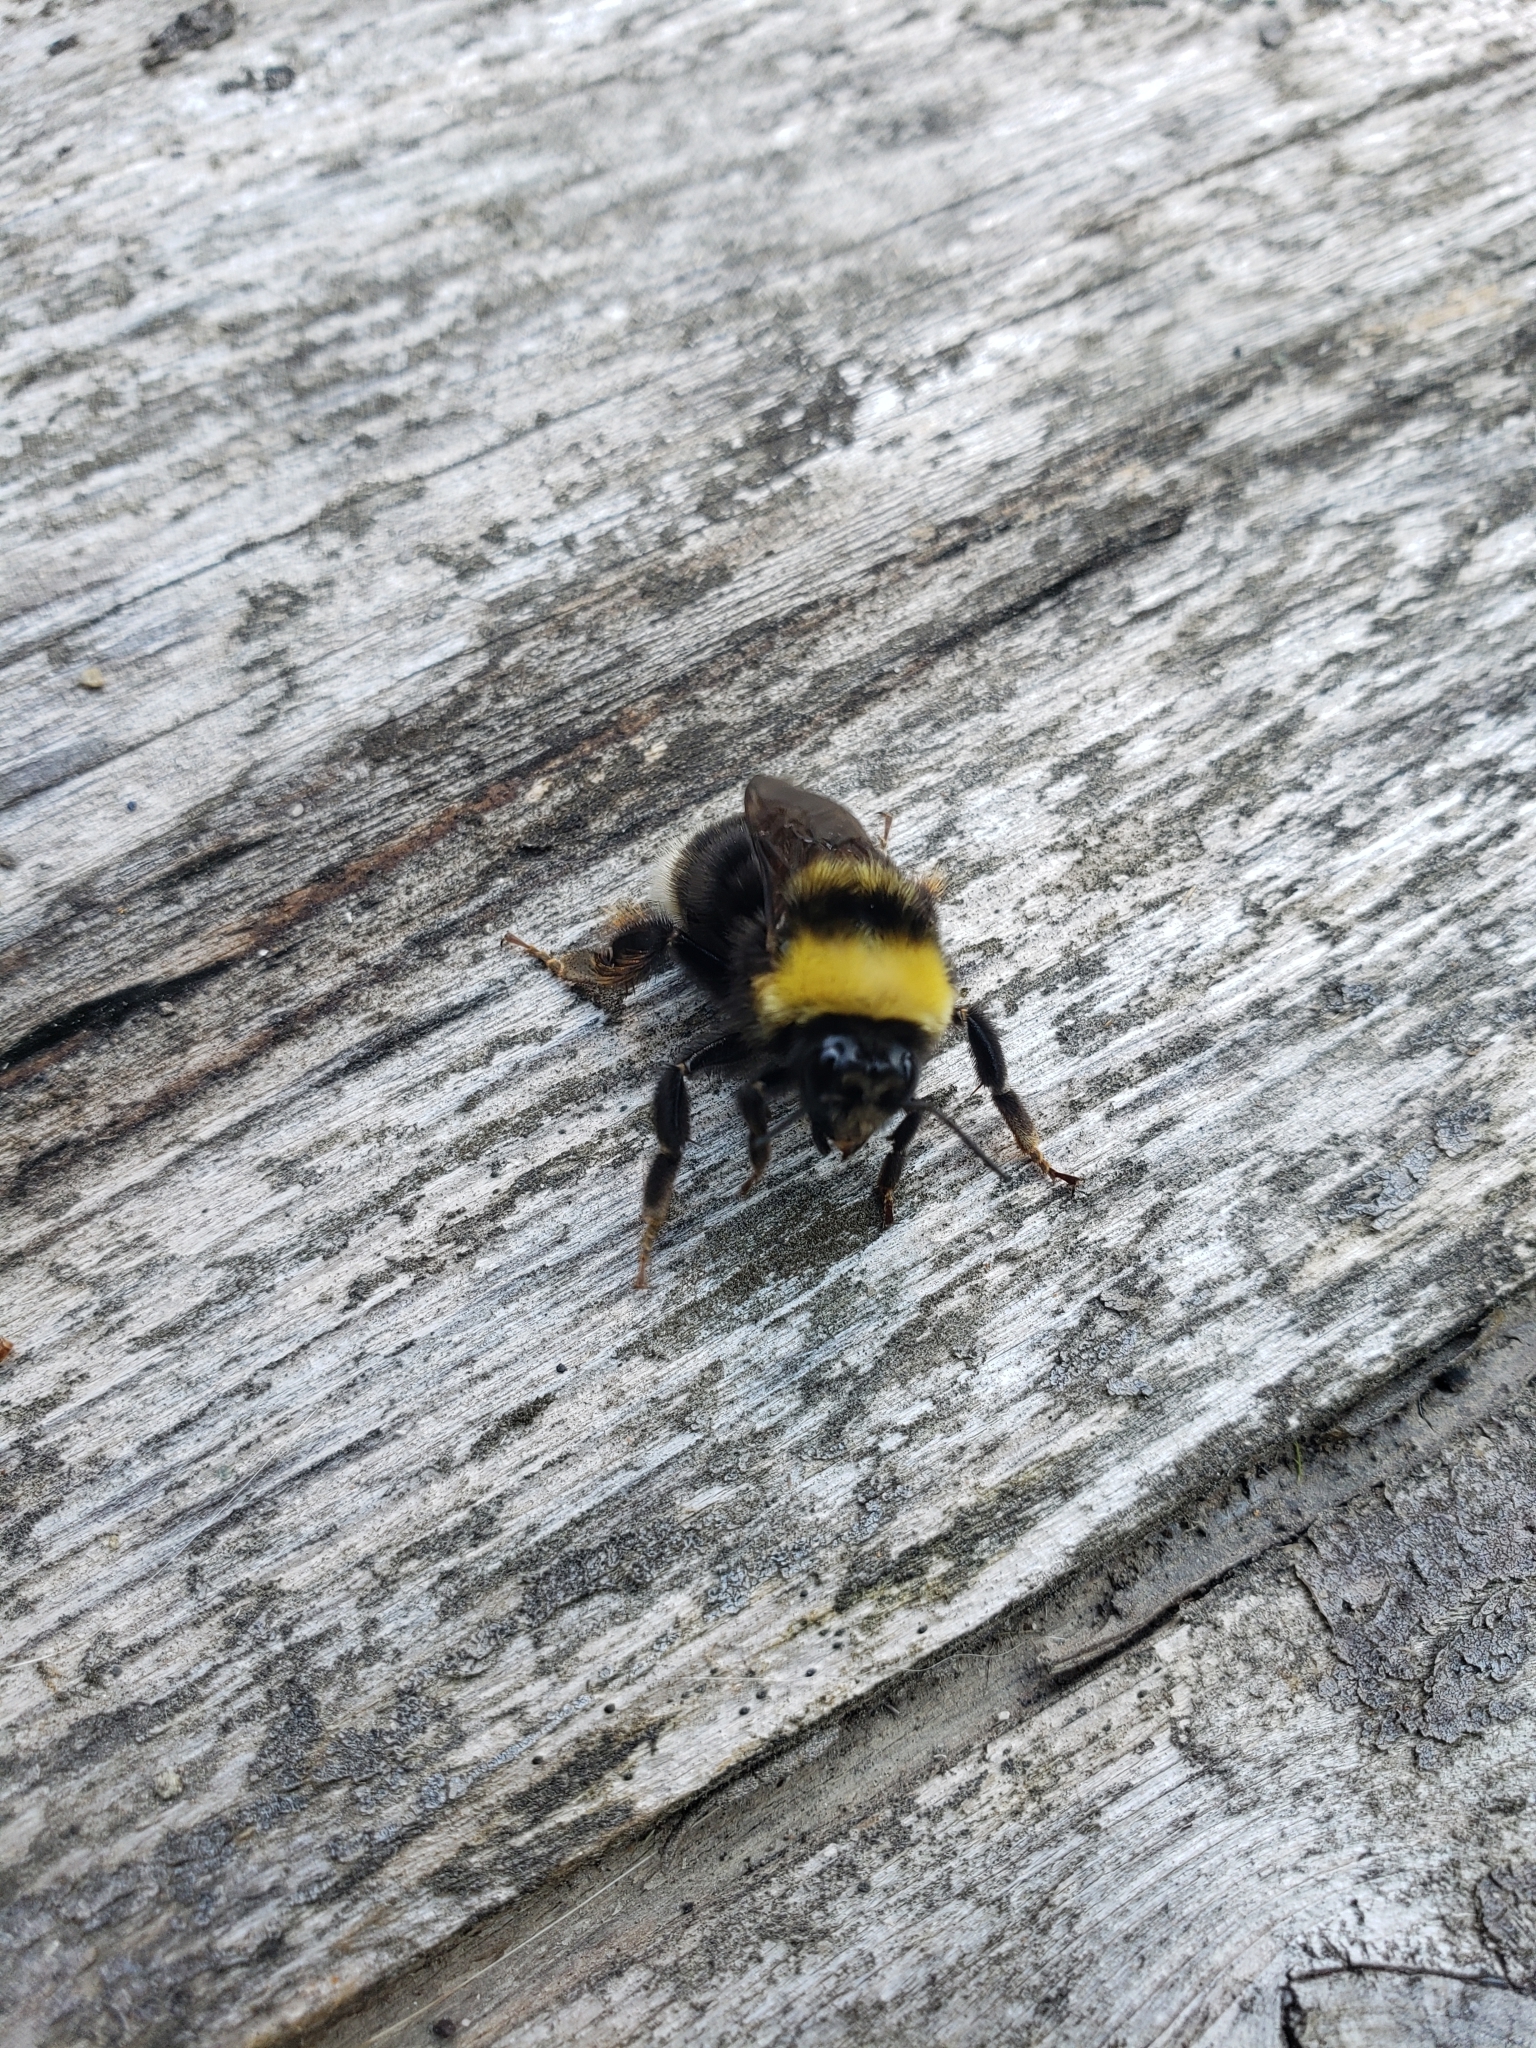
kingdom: Animalia
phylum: Arthropoda
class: Insecta
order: Hymenoptera
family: Apidae
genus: Bombus
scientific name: Bombus occidentalis
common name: Western bumble bee
